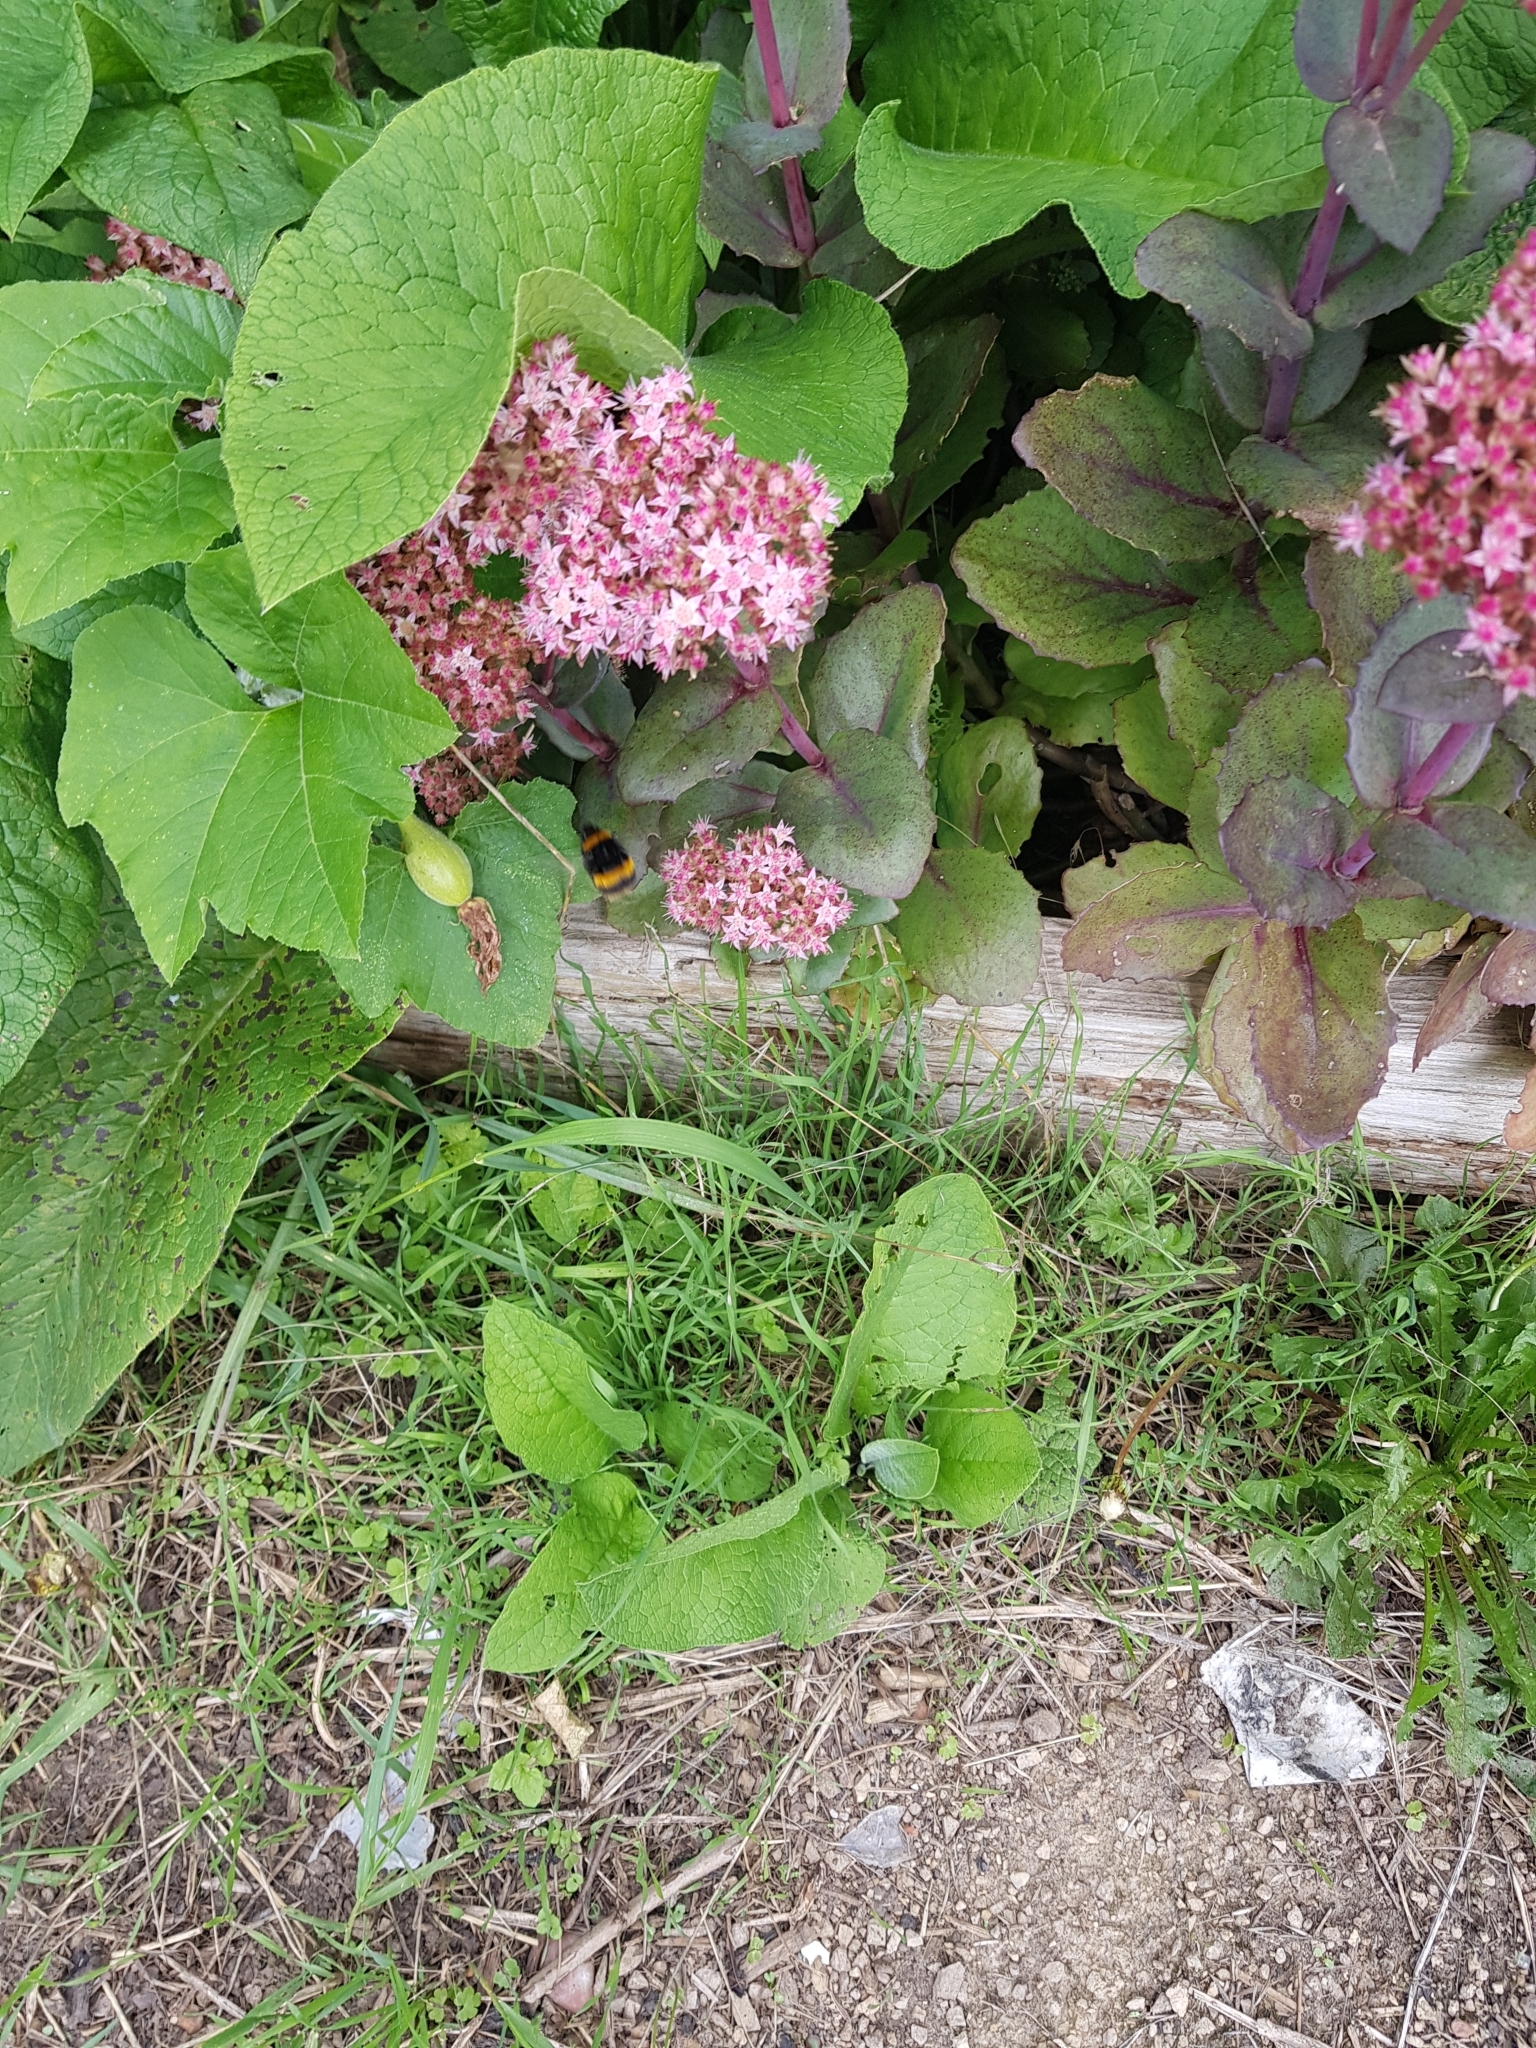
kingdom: Animalia
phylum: Arthropoda
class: Insecta
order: Hymenoptera
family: Apidae
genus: Bombus
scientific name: Bombus terrestris
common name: Buff-tailed bumblebee
